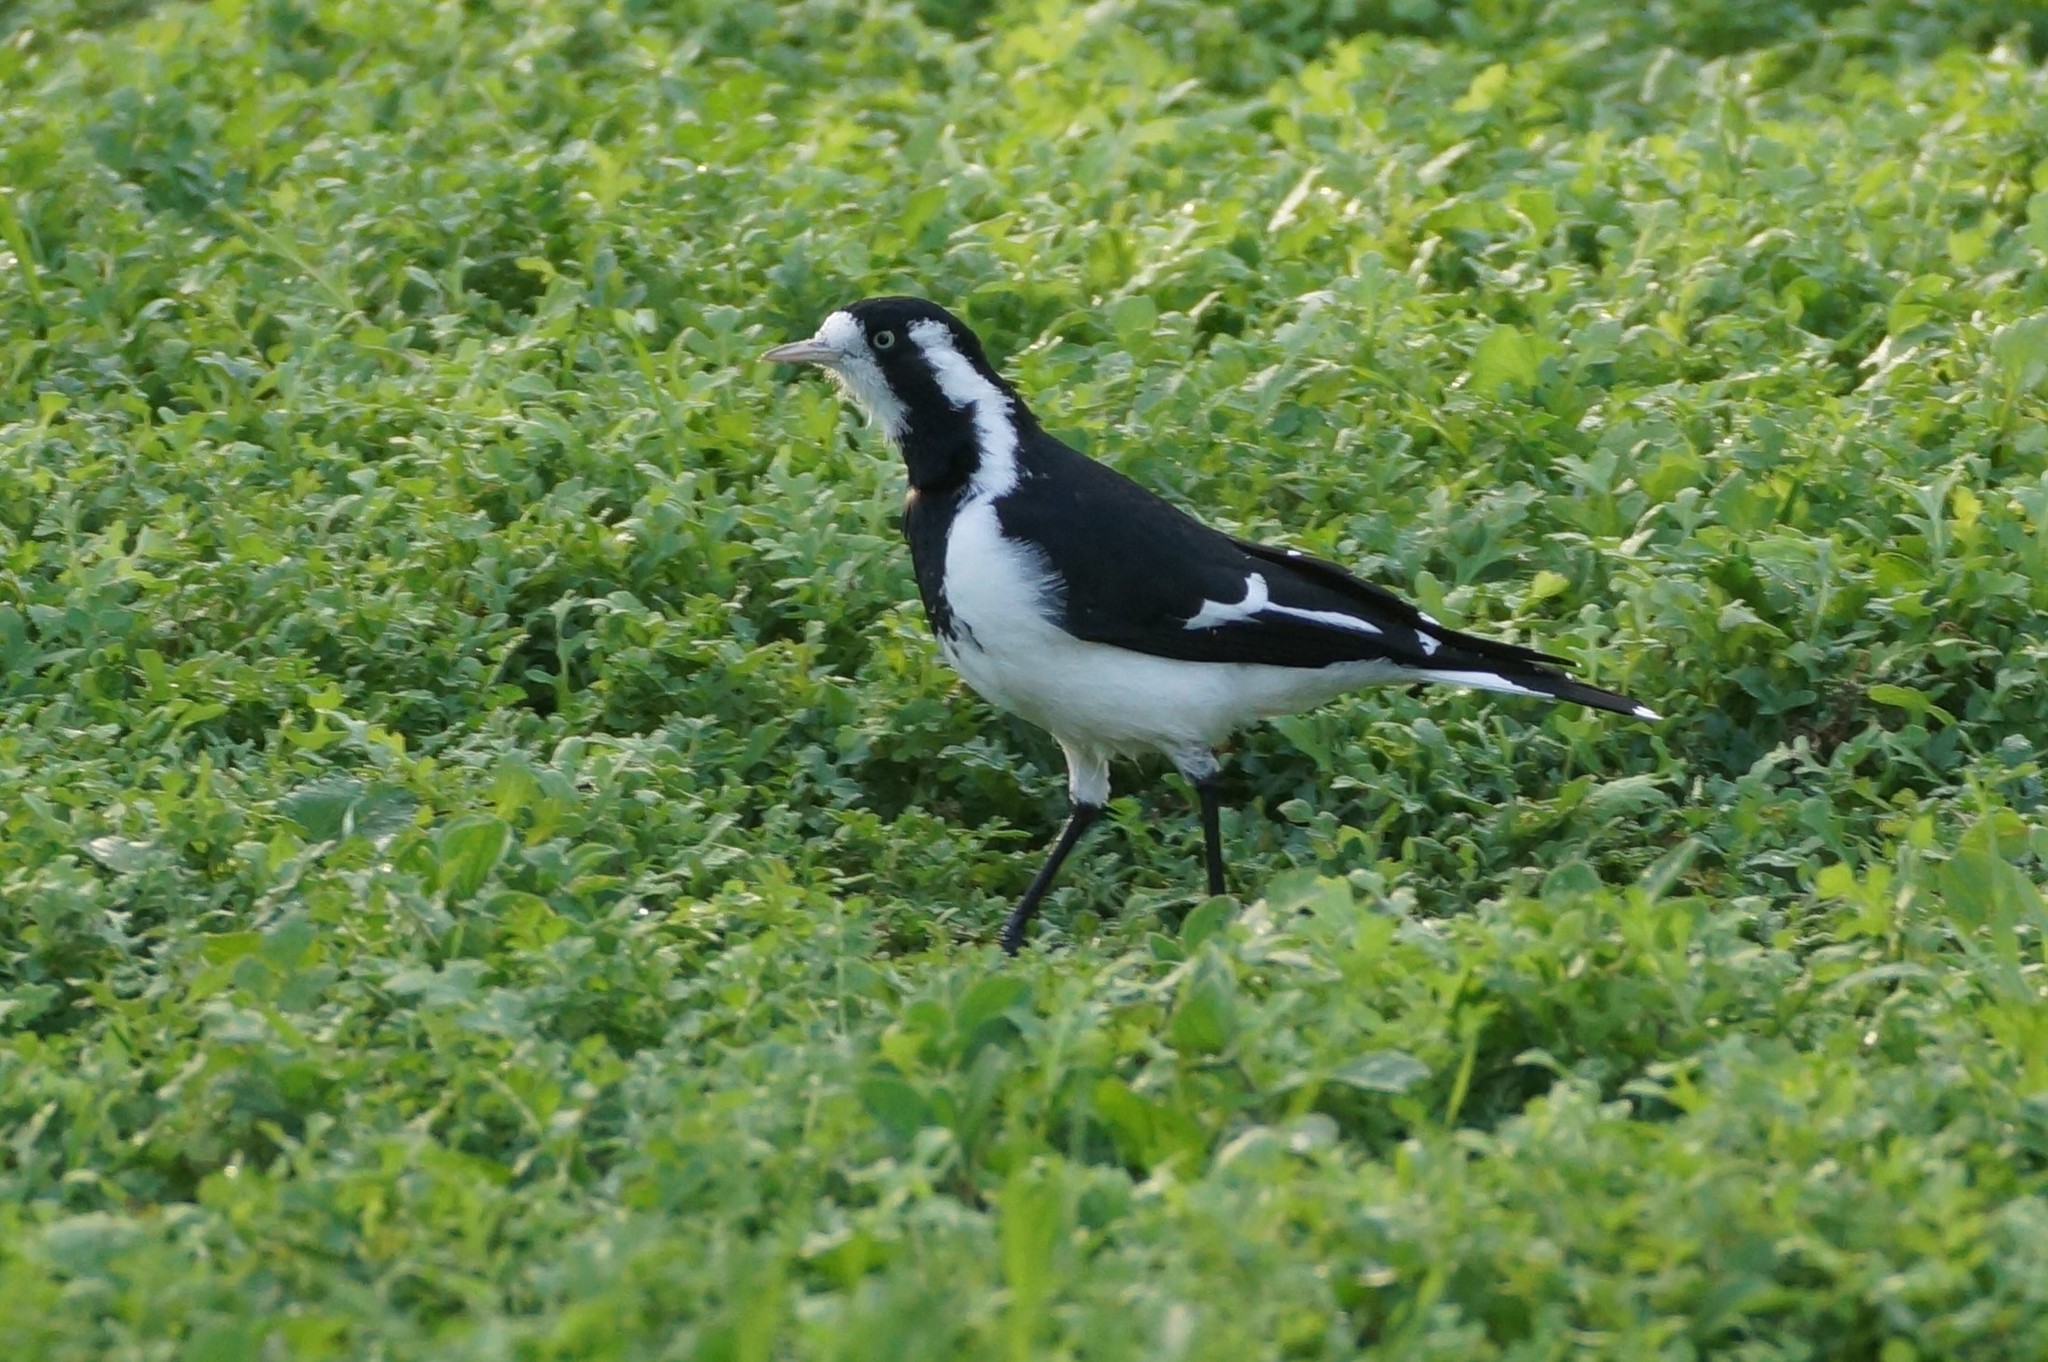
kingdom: Animalia
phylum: Chordata
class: Aves
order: Passeriformes
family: Monarchidae
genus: Grallina
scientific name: Grallina cyanoleuca
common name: Magpie-lark
